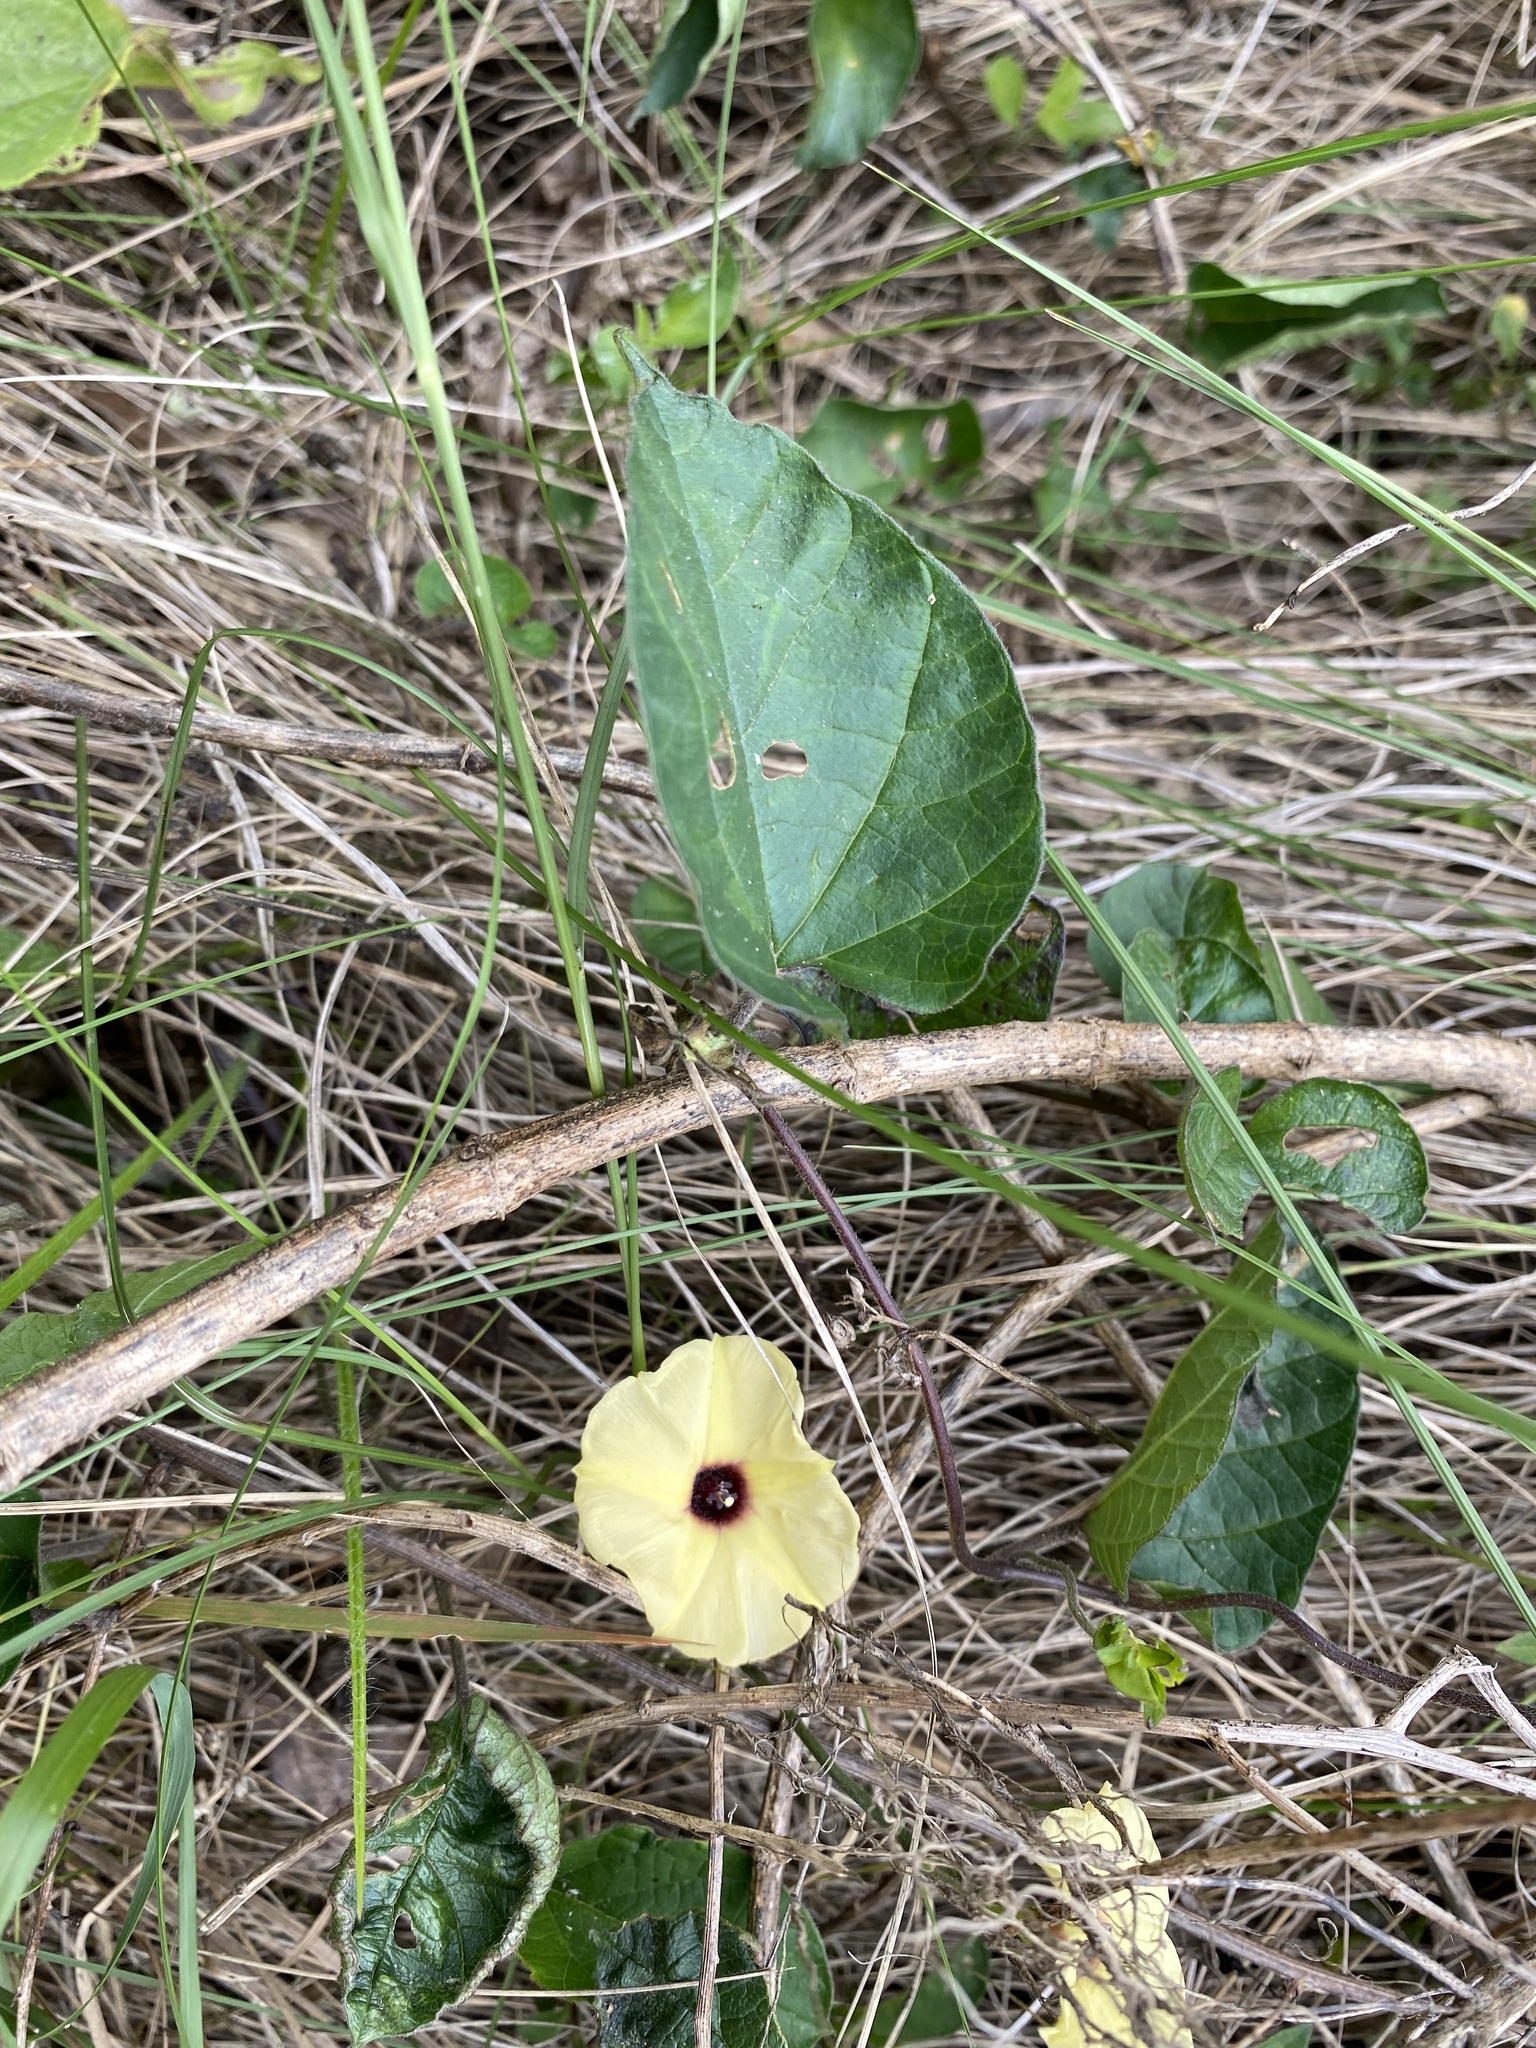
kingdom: Plantae
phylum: Tracheophyta
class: Magnoliopsida
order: Solanales
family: Convolvulaceae
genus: Hewittia
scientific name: Hewittia malabarica
